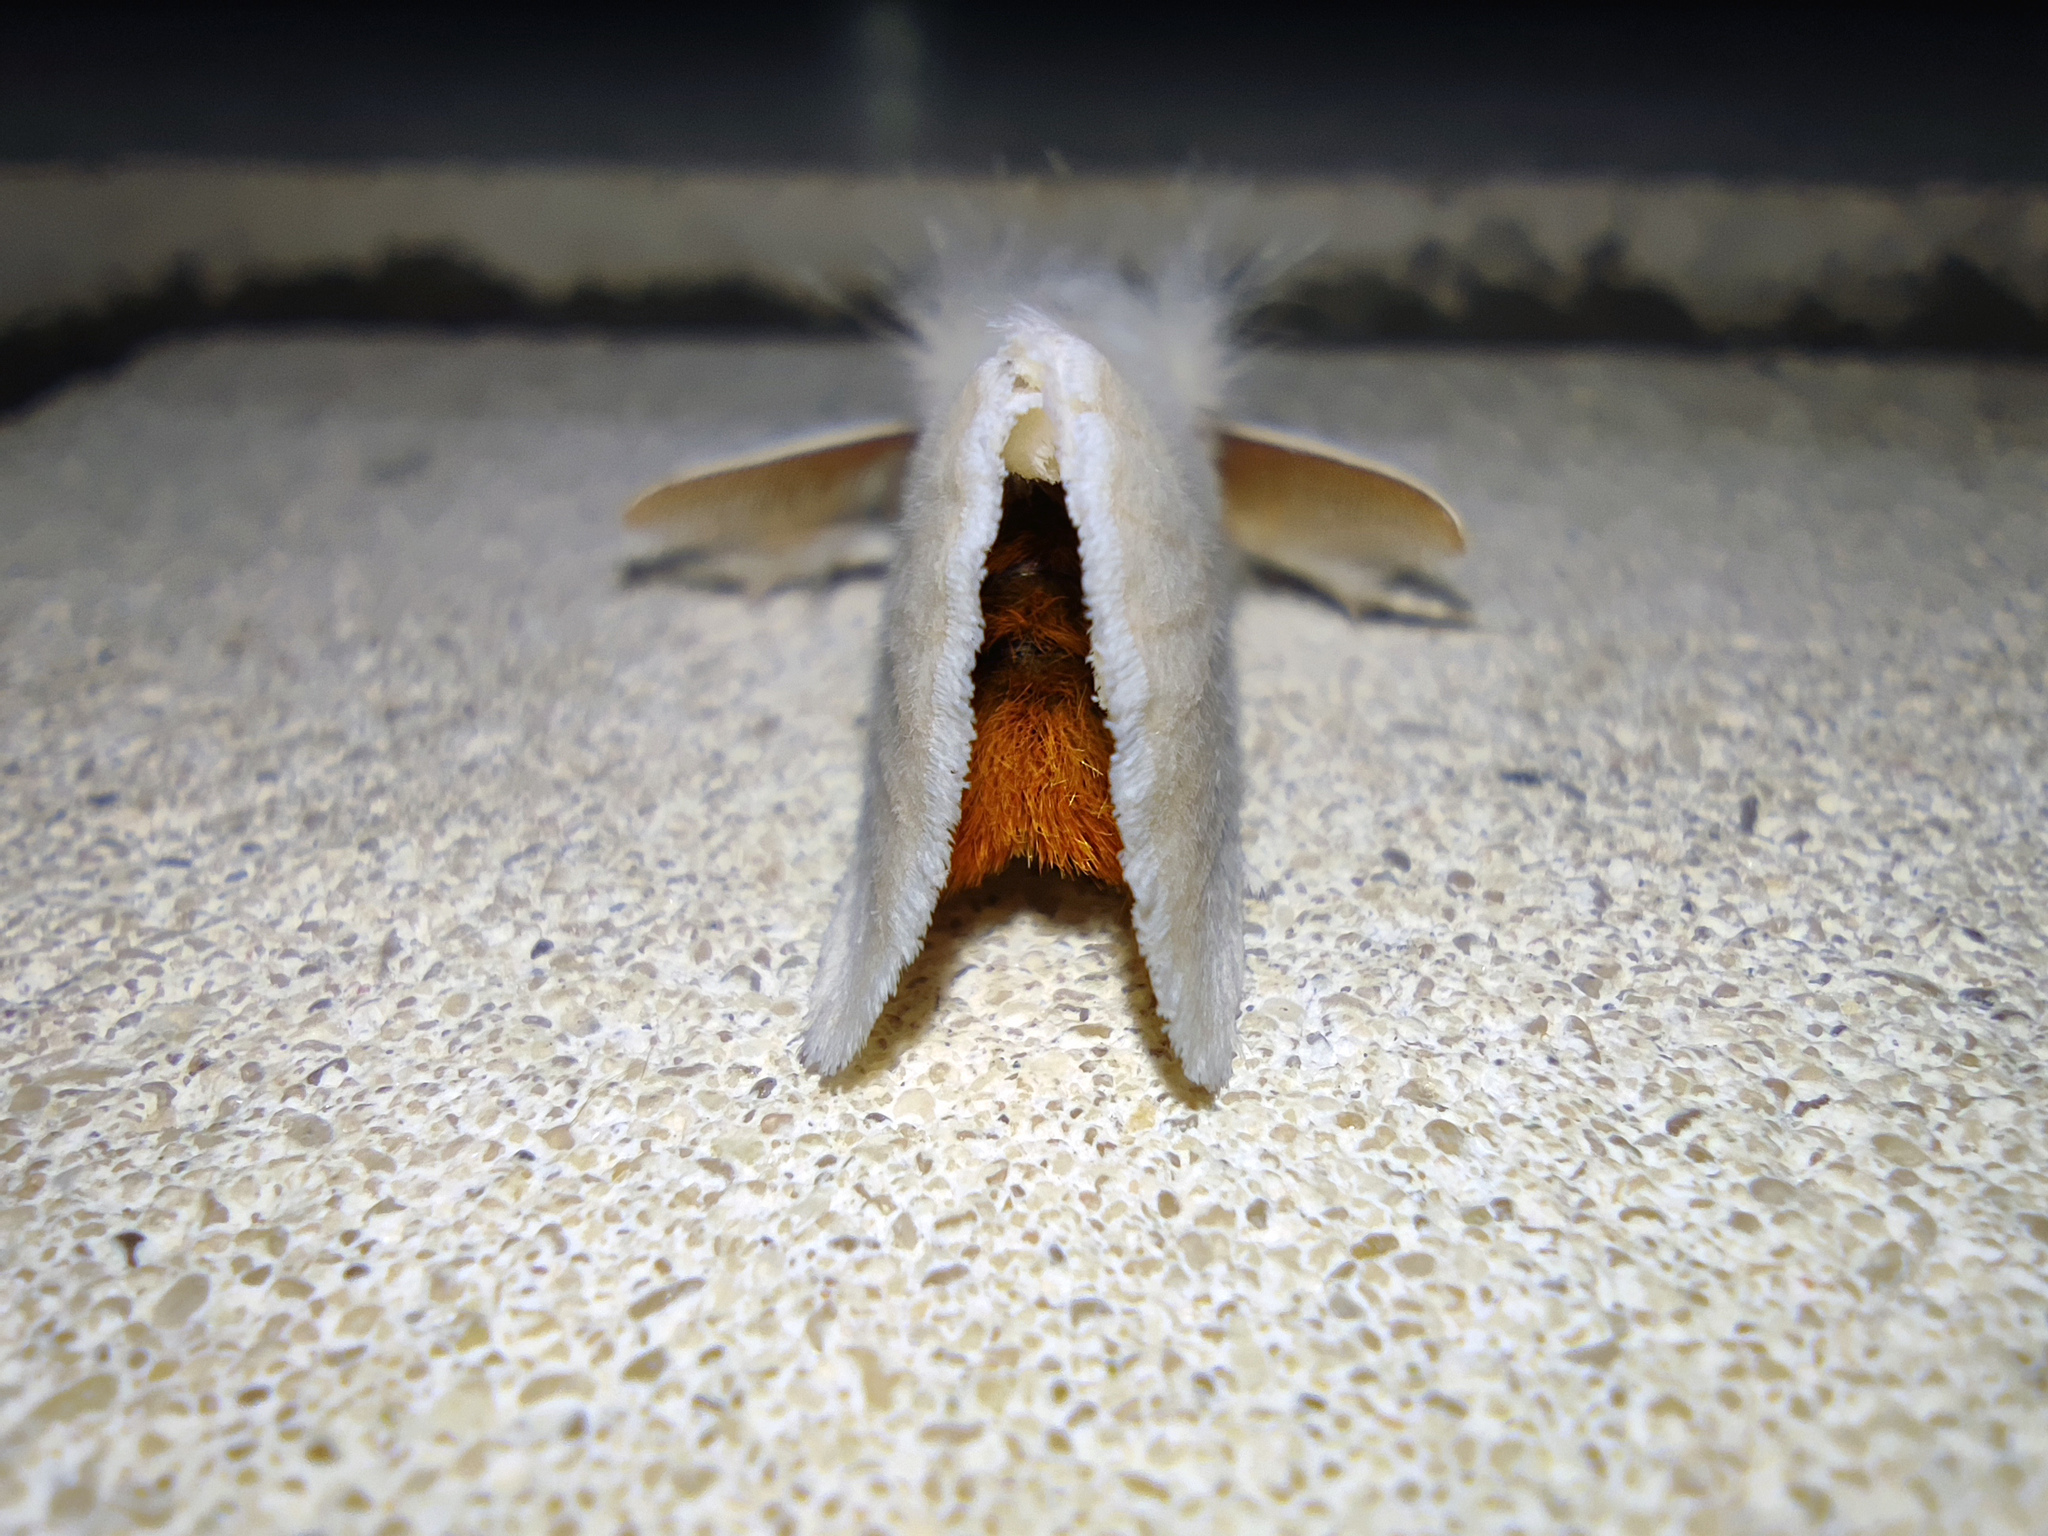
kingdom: Animalia
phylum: Arthropoda
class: Insecta
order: Lepidoptera
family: Erebidae
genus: Euproctis
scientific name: Euproctis chrysorrhoea
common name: Brown-tail
